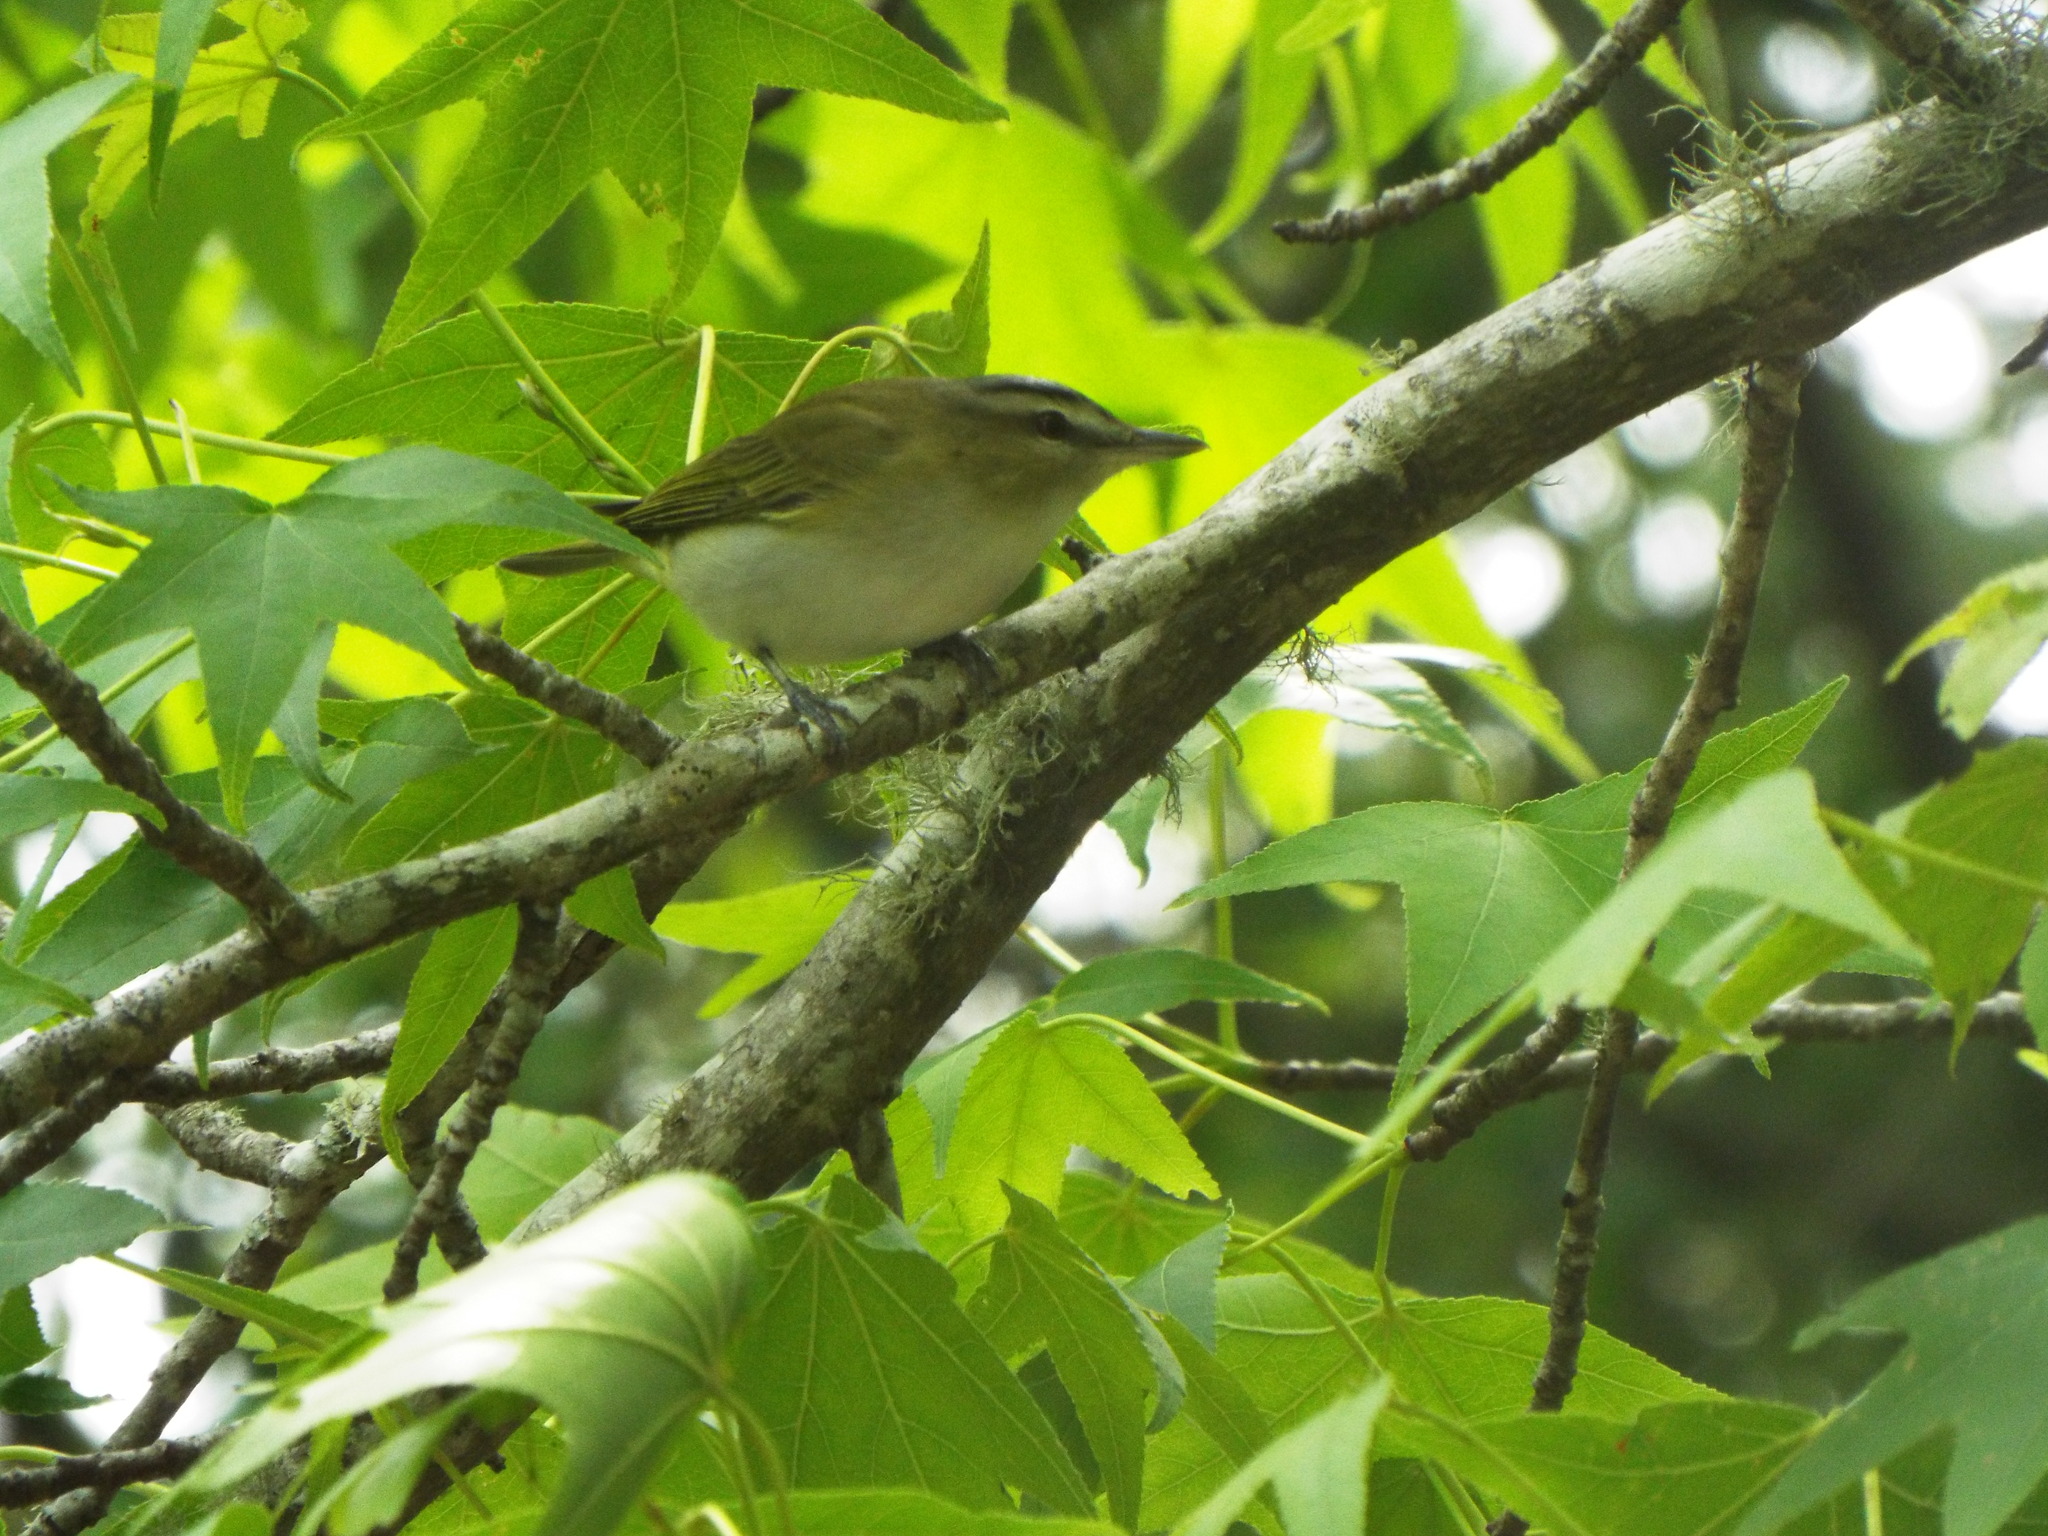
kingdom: Animalia
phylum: Chordata
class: Aves
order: Passeriformes
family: Vireonidae
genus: Vireo
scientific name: Vireo olivaceus
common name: Red-eyed vireo
